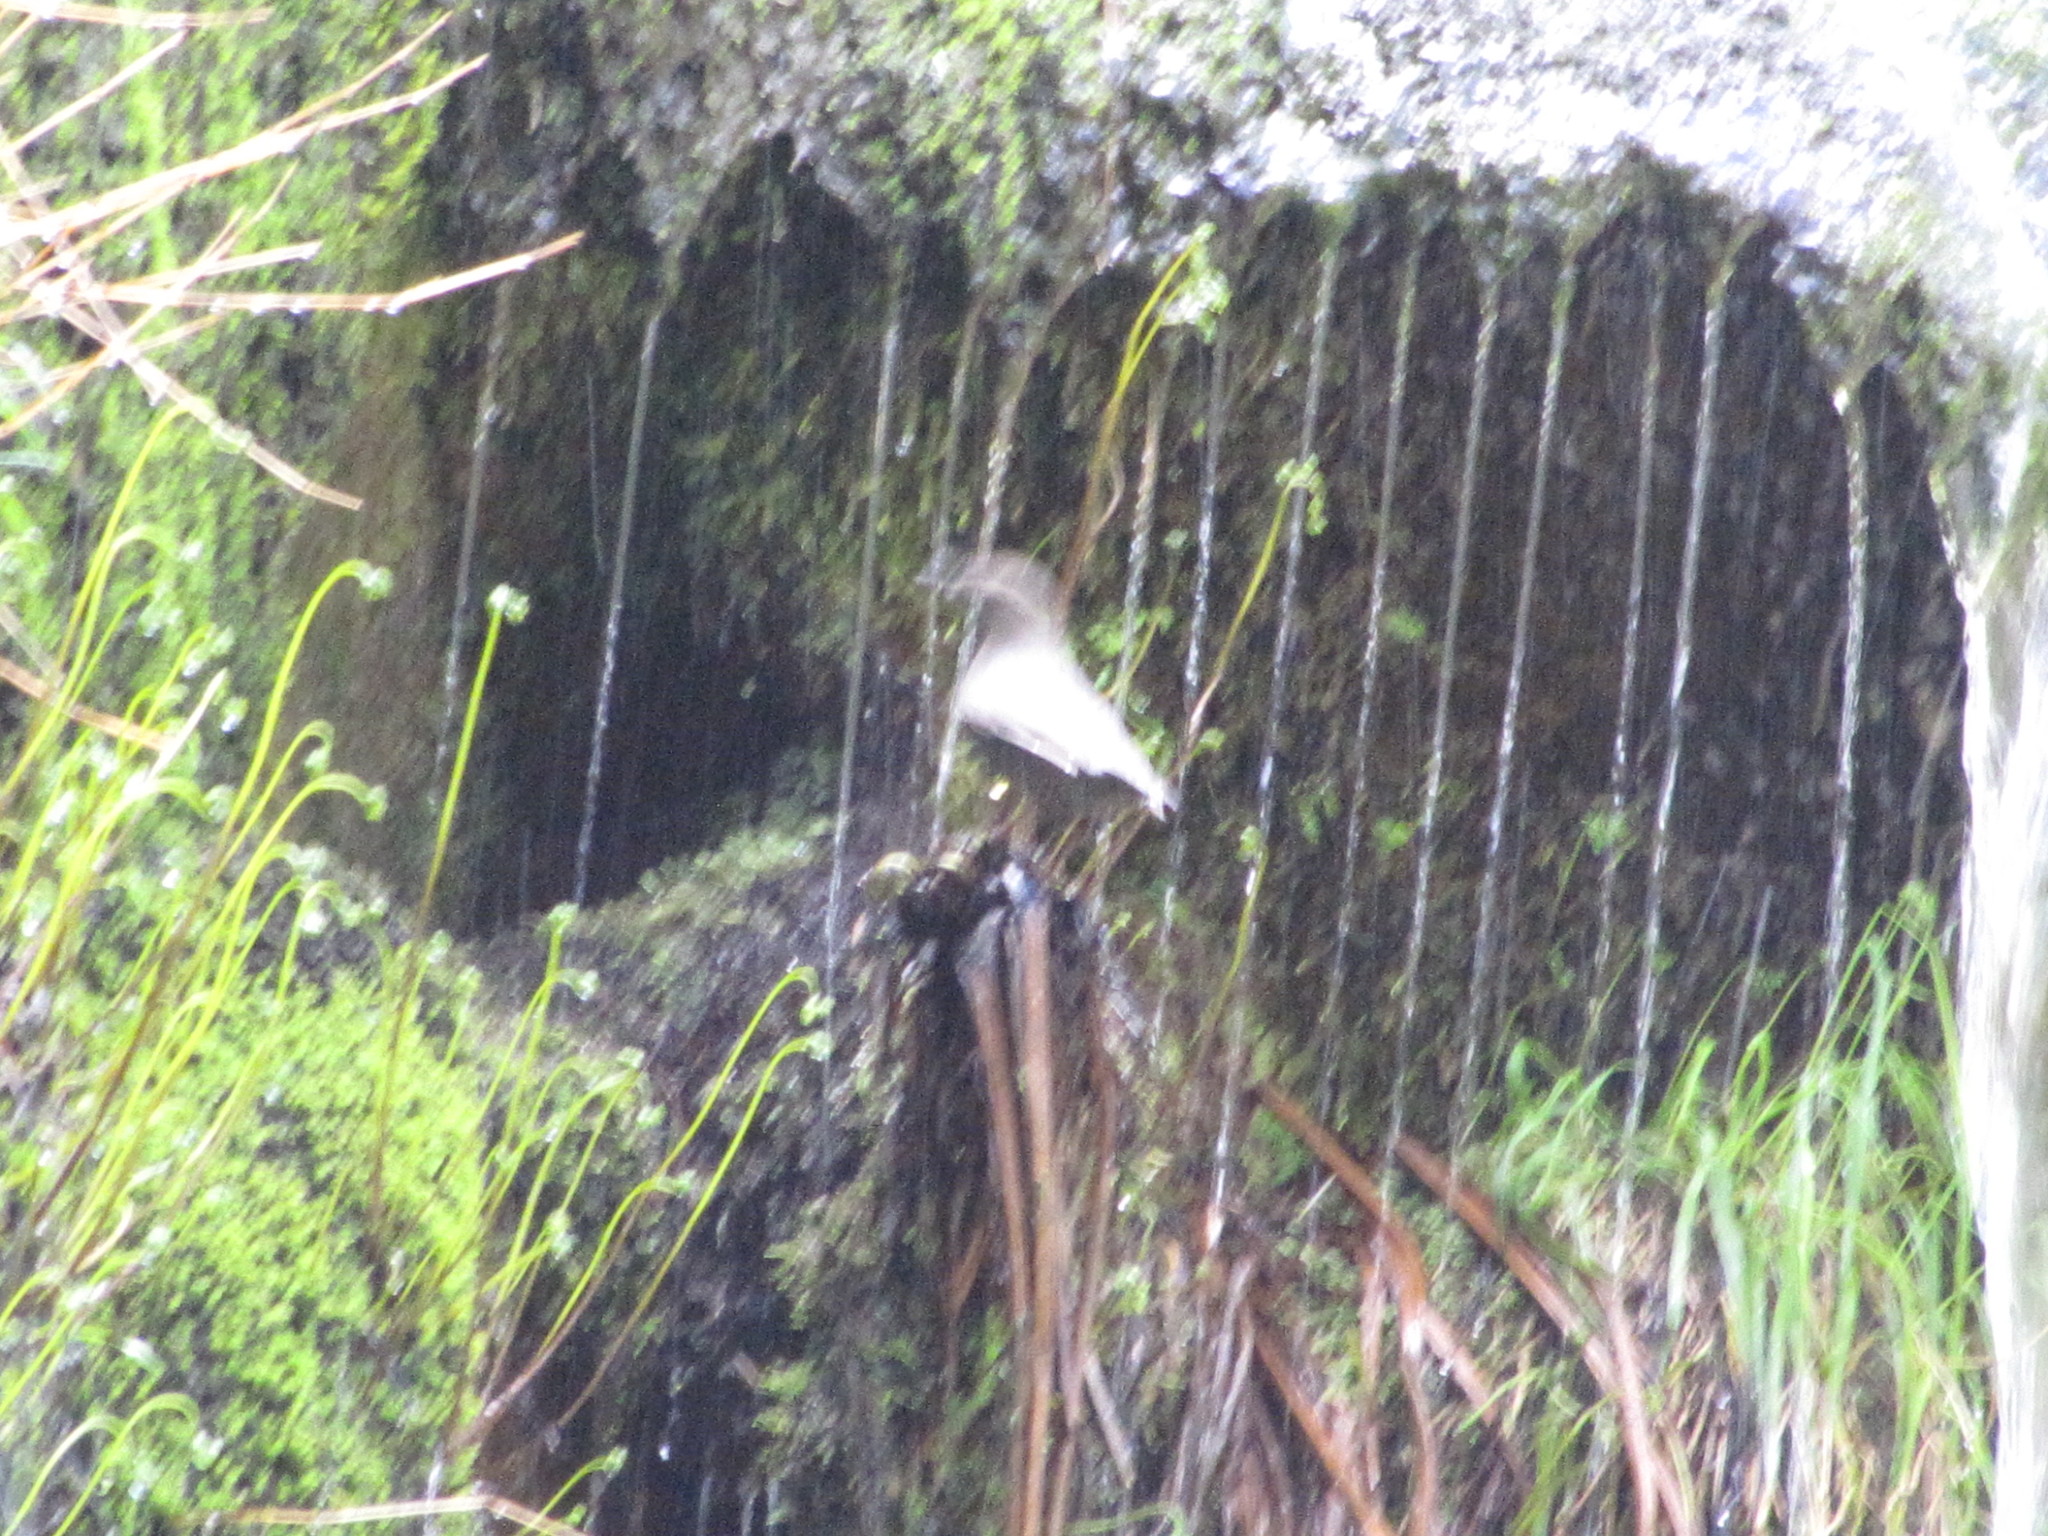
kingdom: Animalia
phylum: Chordata
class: Aves
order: Passeriformes
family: Cinclidae
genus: Cinclus
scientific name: Cinclus mexicanus
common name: American dipper
